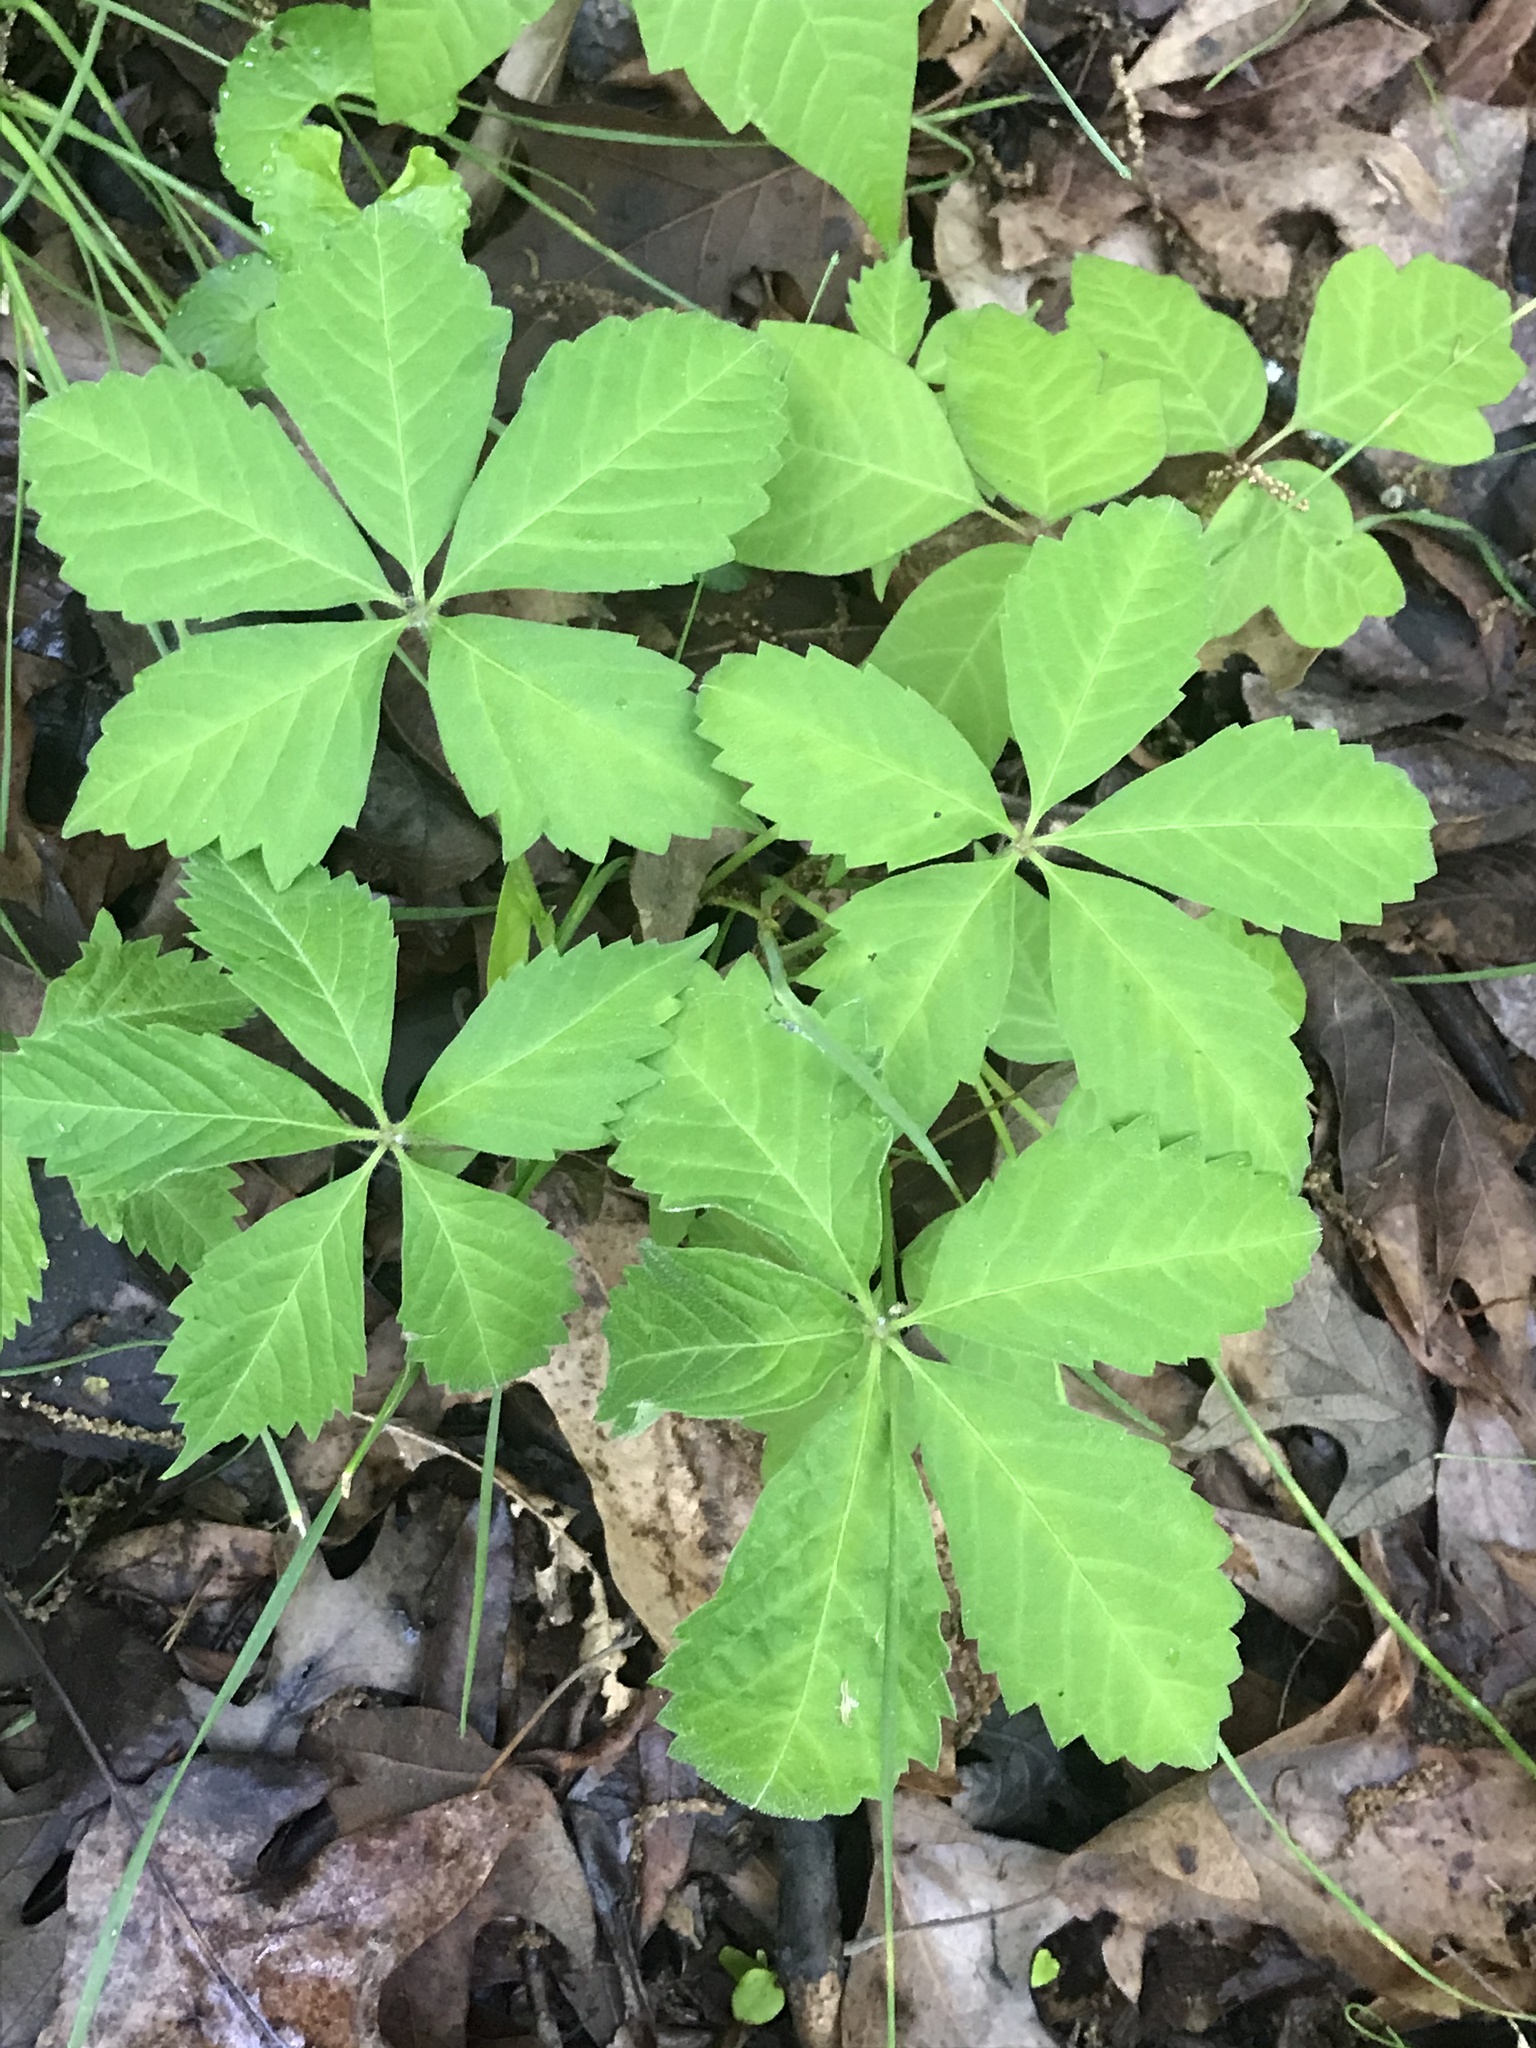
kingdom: Plantae
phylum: Tracheophyta
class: Magnoliopsida
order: Vitales
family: Vitaceae
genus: Parthenocissus
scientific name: Parthenocissus quinquefolia
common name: Virginia-creeper
